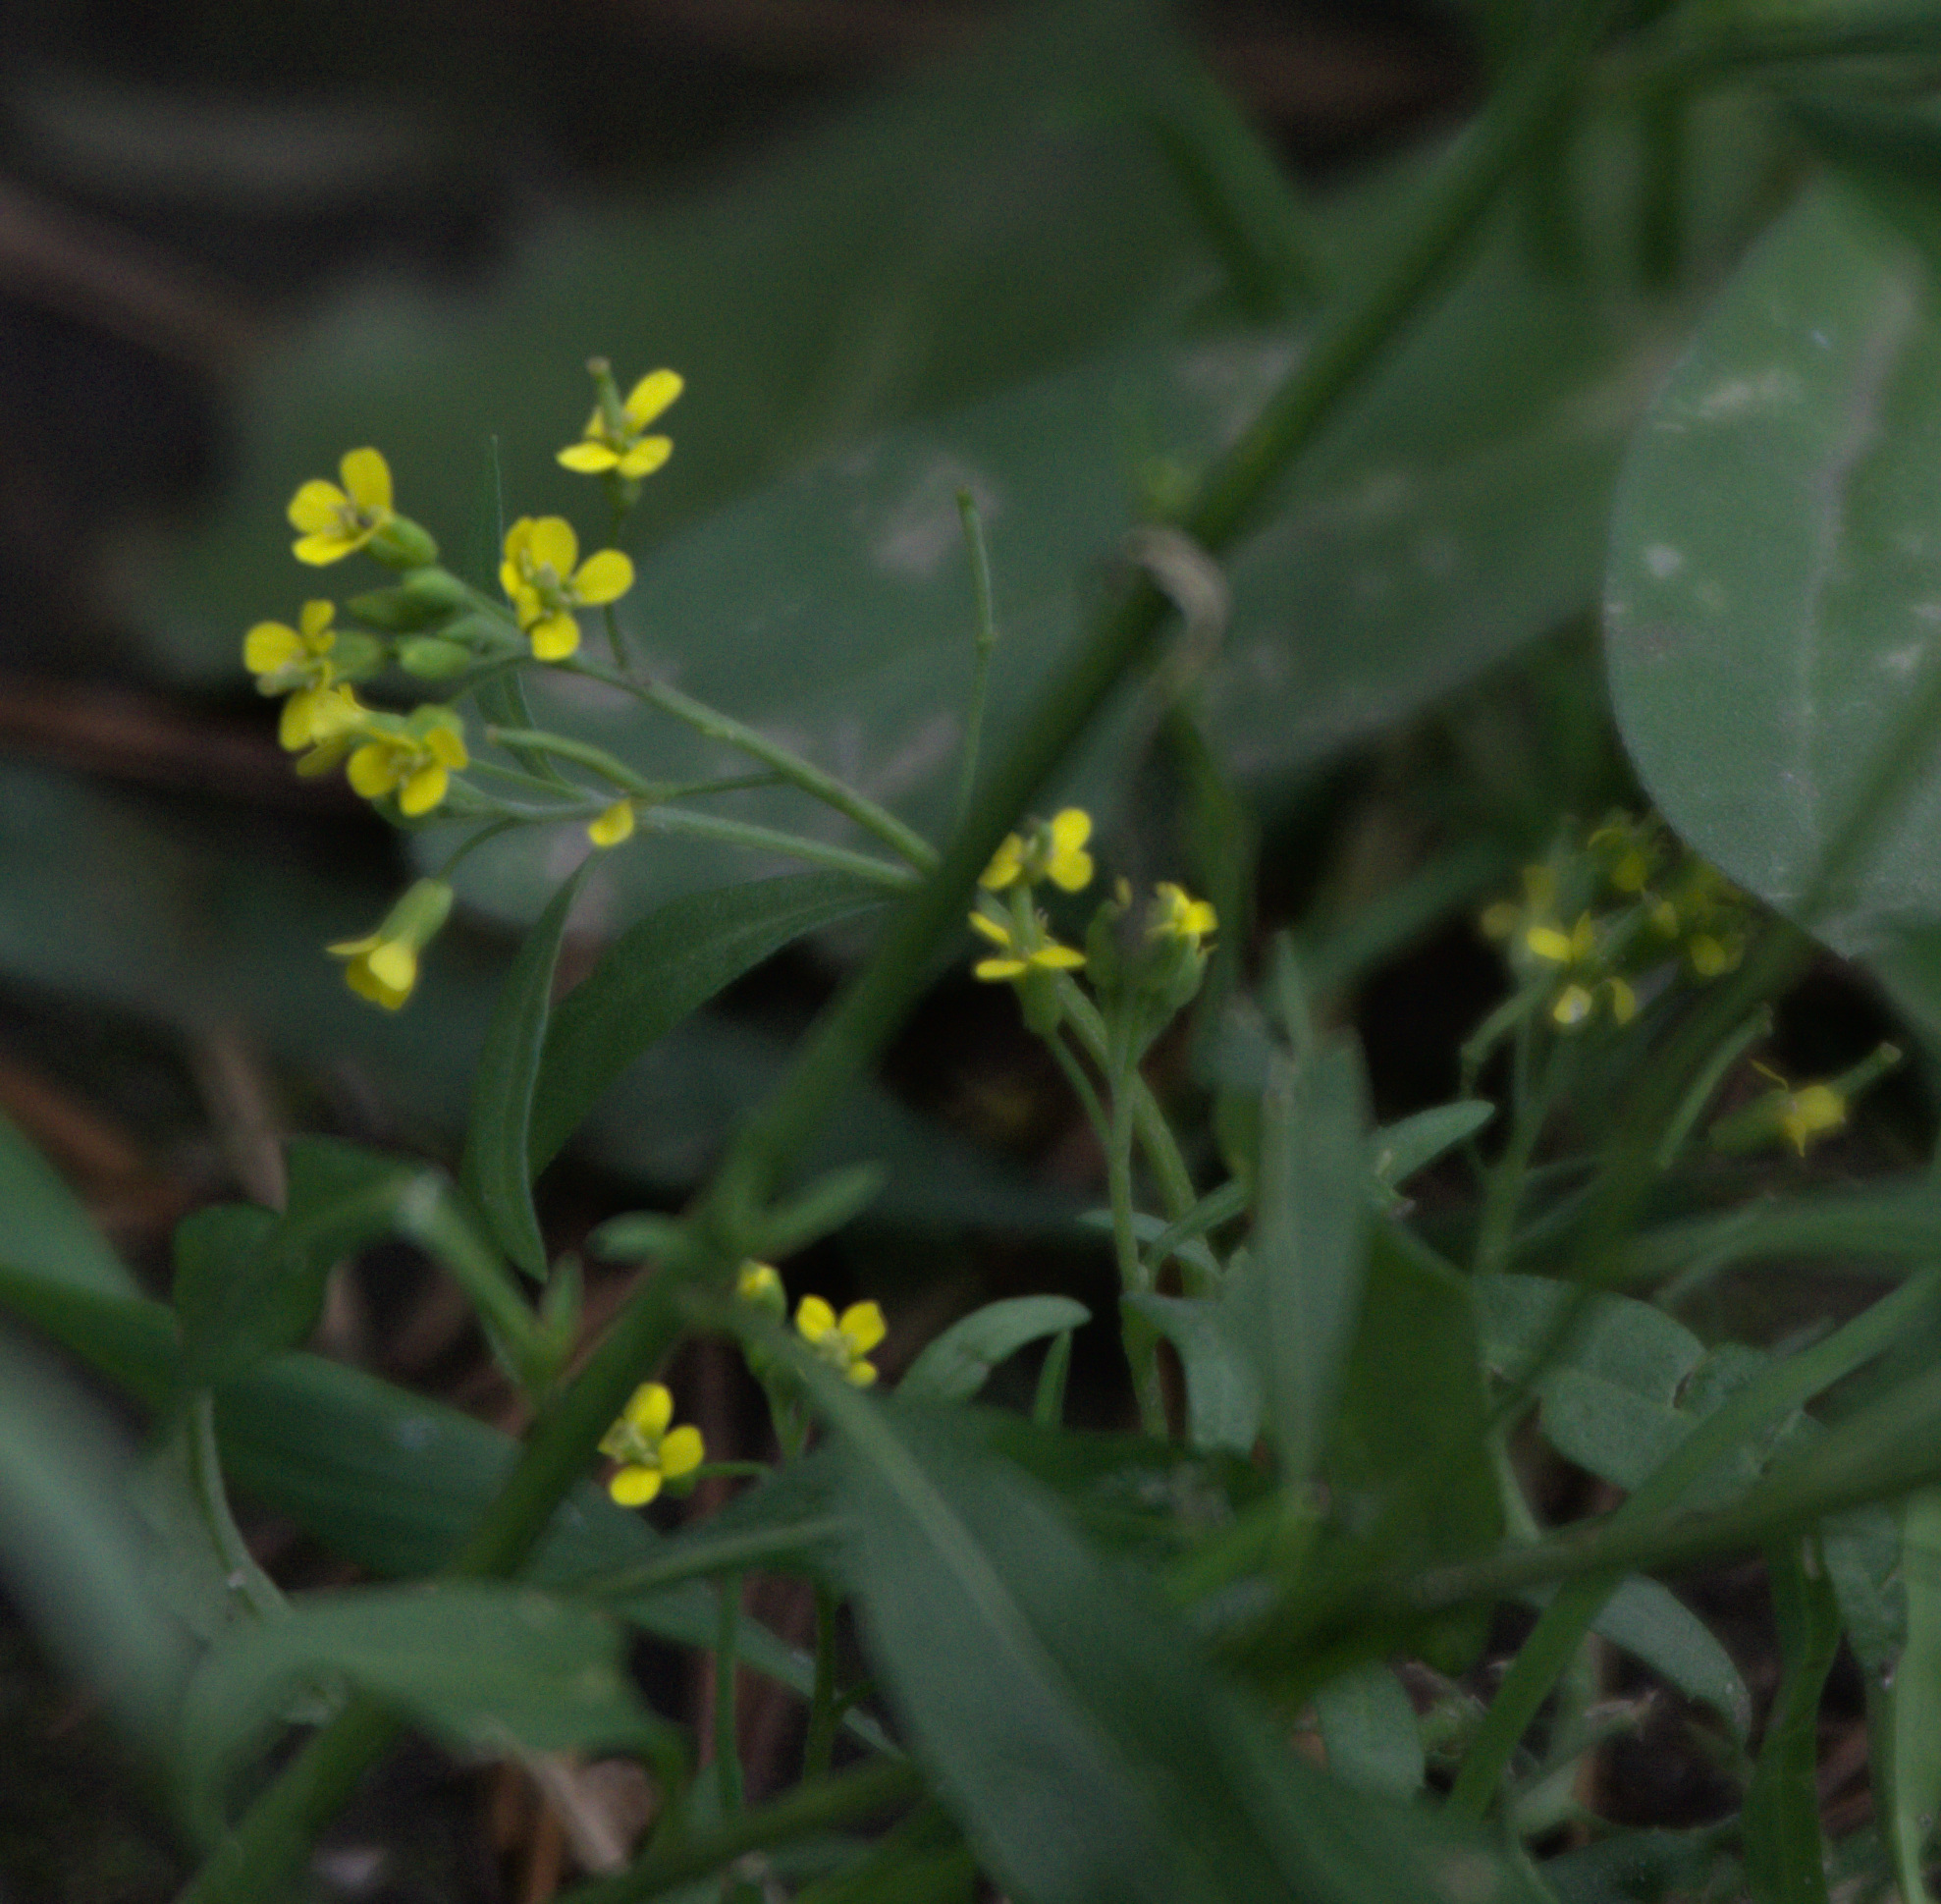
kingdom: Plantae
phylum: Tracheophyta
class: Magnoliopsida
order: Brassicales
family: Brassicaceae
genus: Erysimum
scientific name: Erysimum cheiranthoides
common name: Treacle mustard
